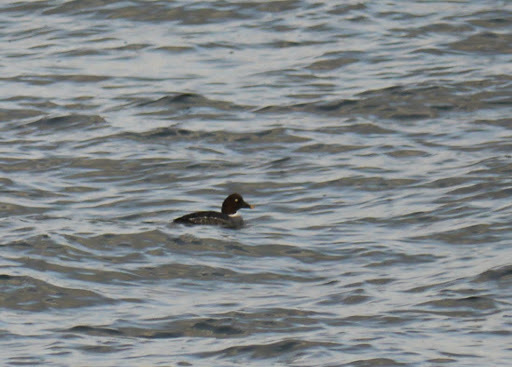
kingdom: Animalia
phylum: Chordata
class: Aves
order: Anseriformes
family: Anatidae
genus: Bucephala
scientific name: Bucephala clangula
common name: Common goldeneye
